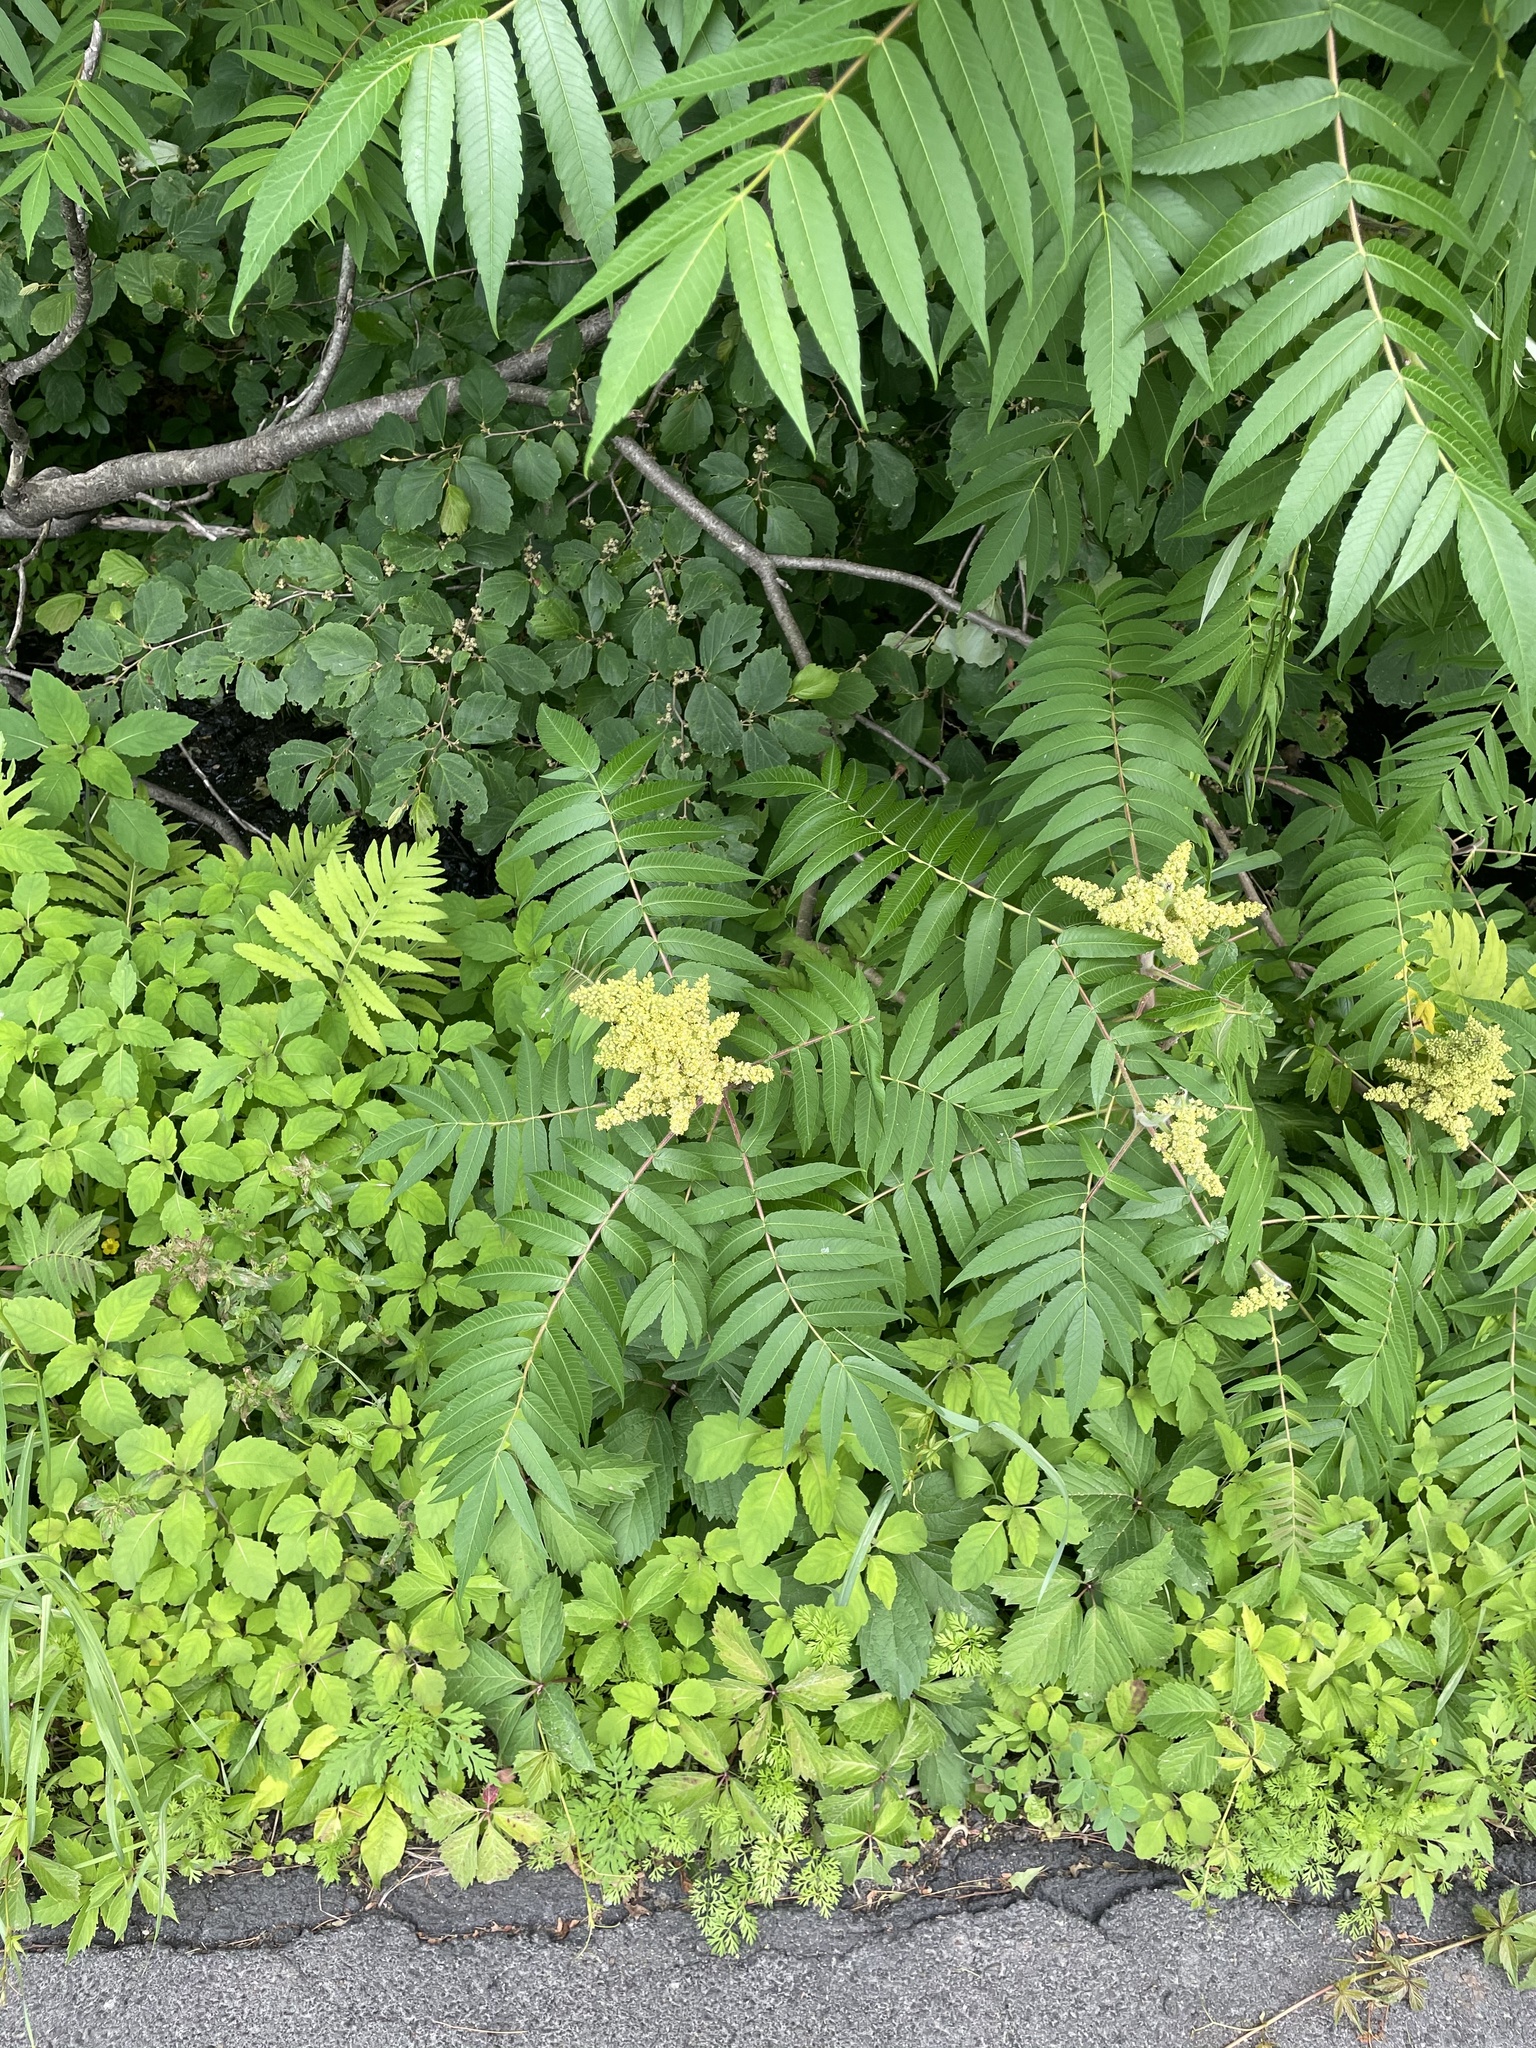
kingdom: Plantae
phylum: Tracheophyta
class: Magnoliopsida
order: Sapindales
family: Anacardiaceae
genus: Rhus
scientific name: Rhus typhina
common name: Staghorn sumac
